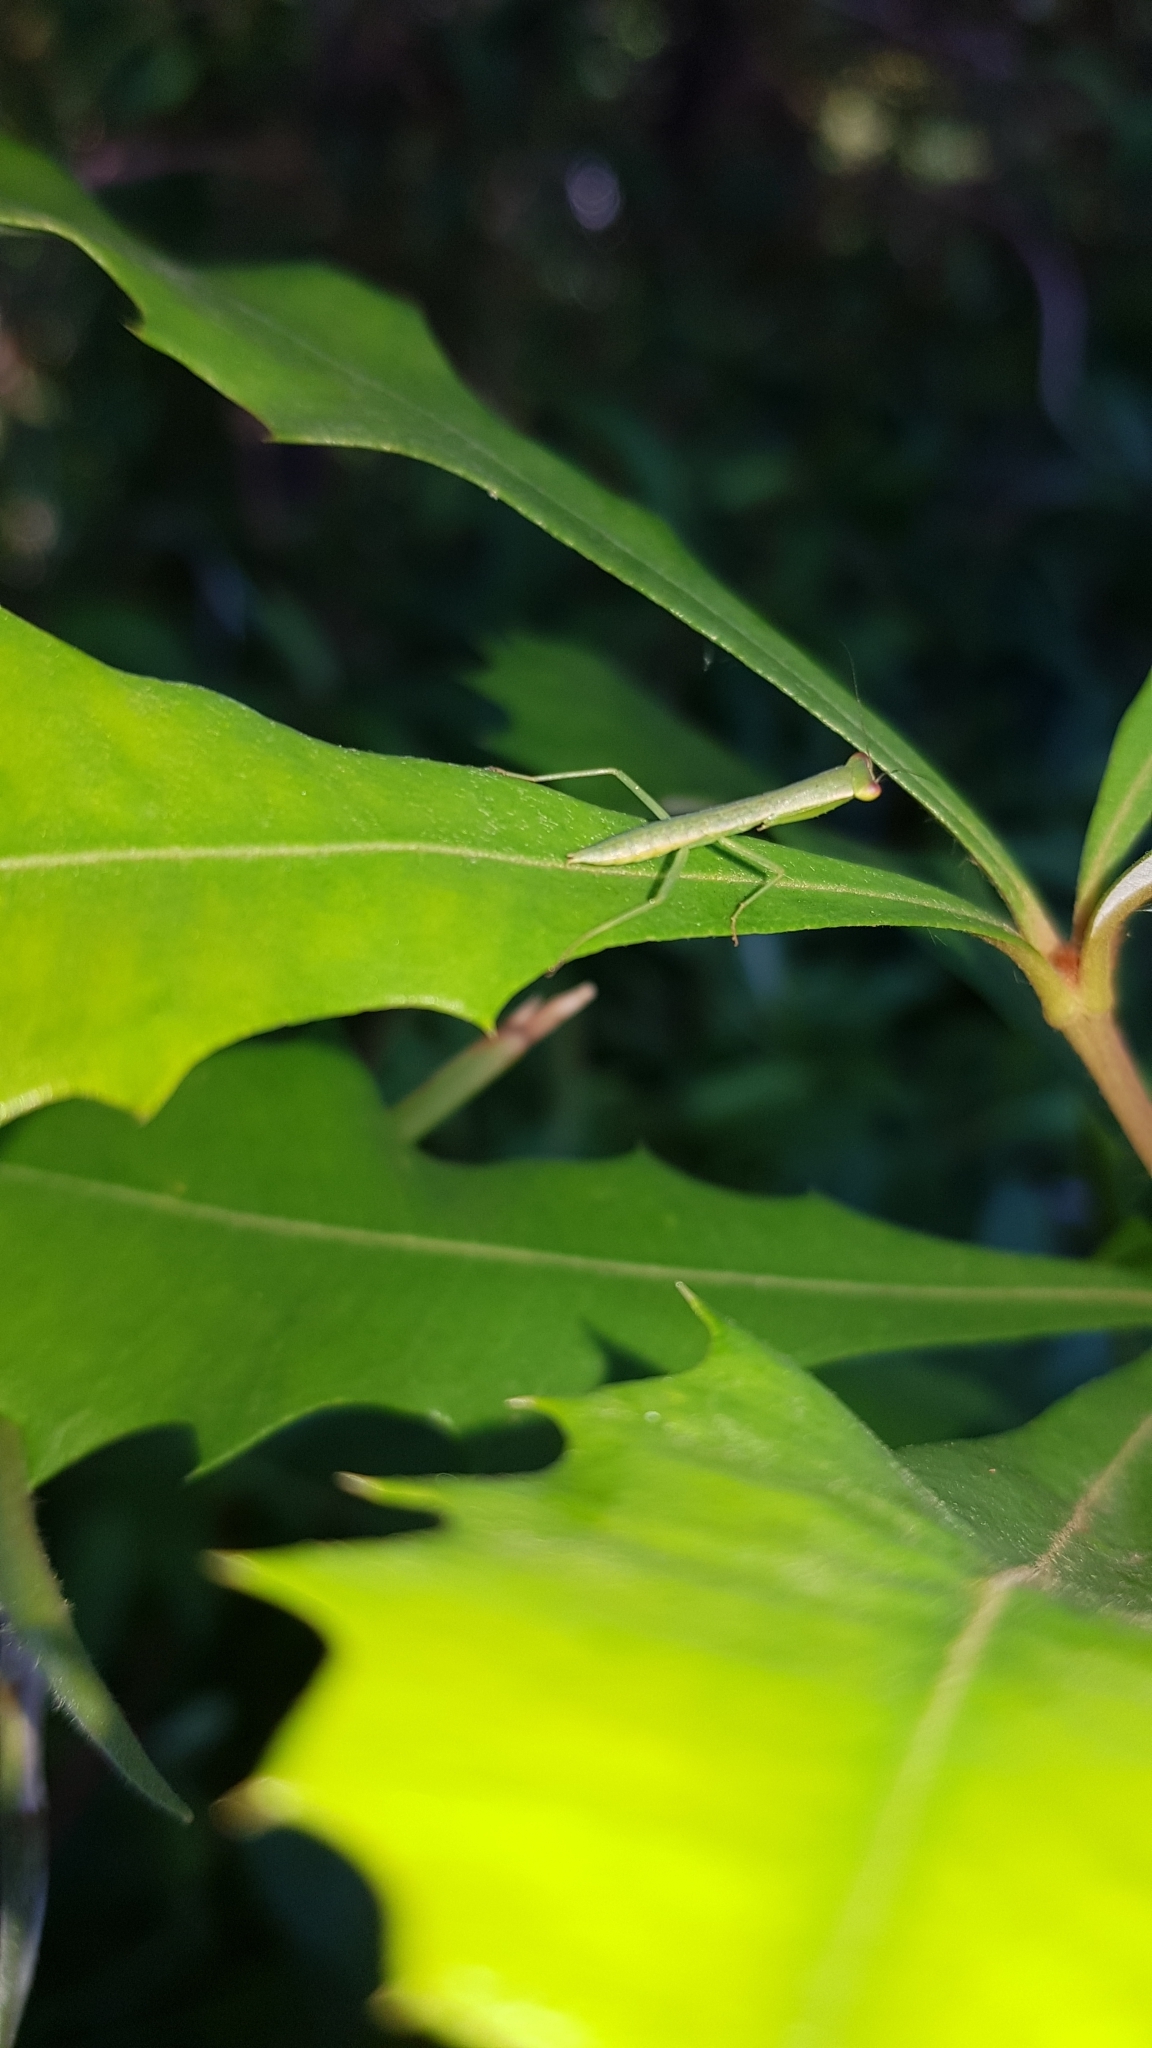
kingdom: Animalia
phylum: Arthropoda
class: Insecta
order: Mantodea
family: Mantidae
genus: Orthodera
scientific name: Orthodera ministralis
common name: Mantis
